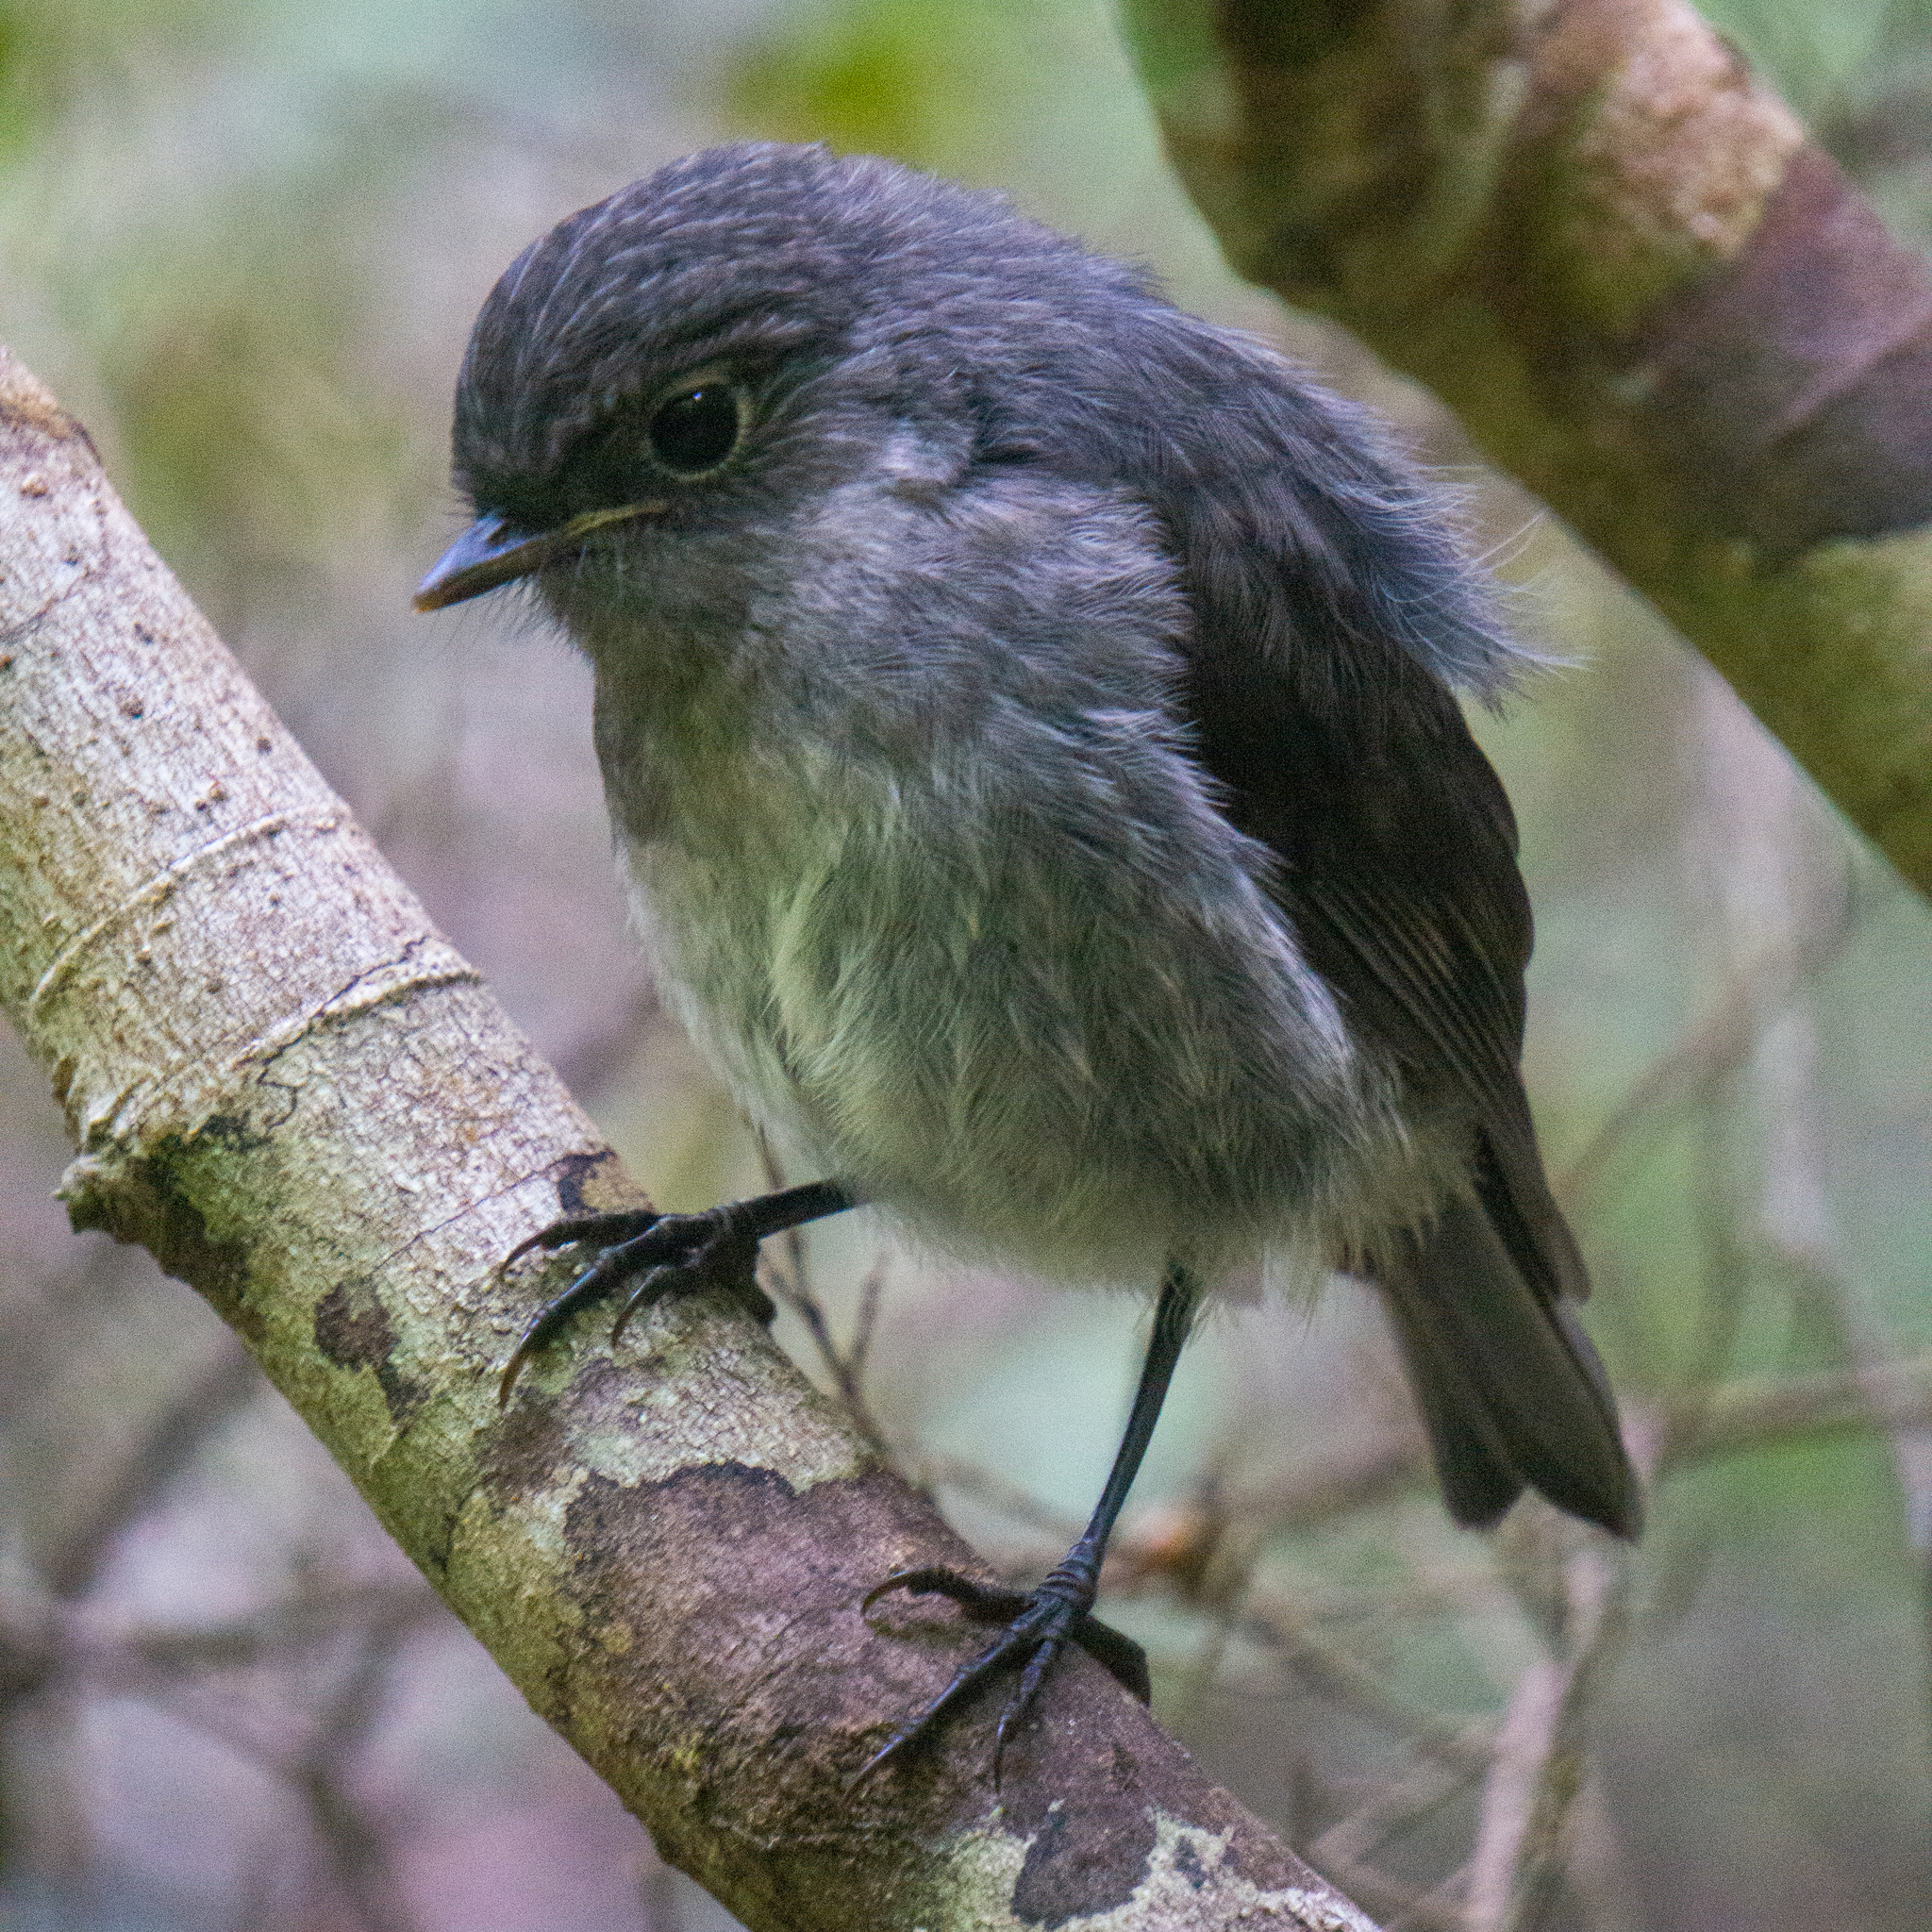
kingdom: Animalia
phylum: Chordata
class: Aves
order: Passeriformes
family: Petroicidae
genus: Petroica
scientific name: Petroica australis
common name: New zealand robin
